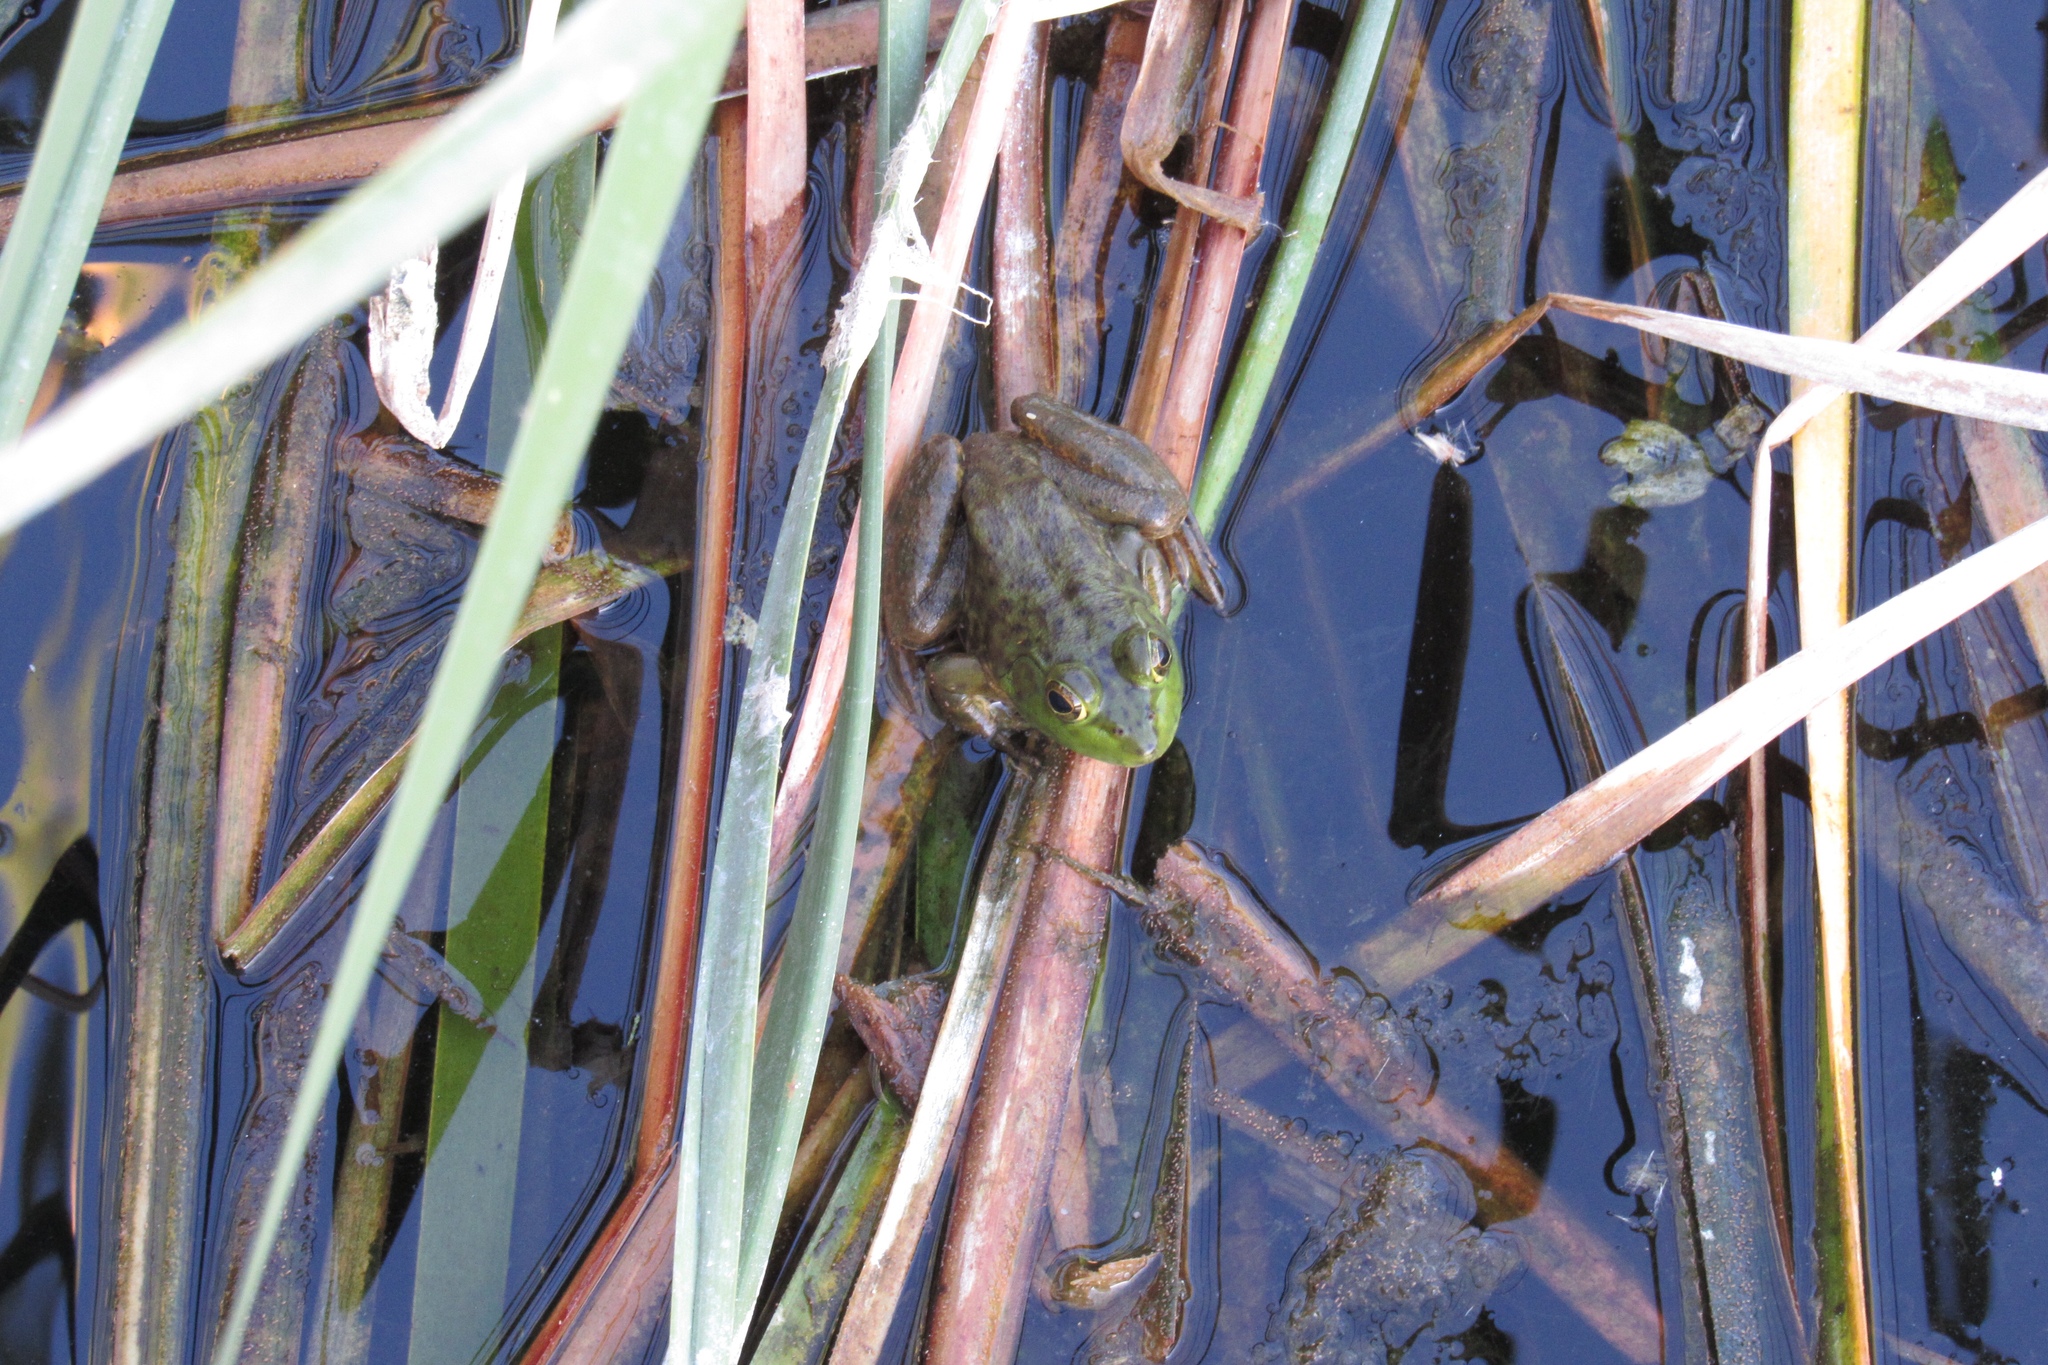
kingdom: Animalia
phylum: Chordata
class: Amphibia
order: Anura
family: Ranidae
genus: Lithobates
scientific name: Lithobates catesbeianus
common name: American bullfrog
